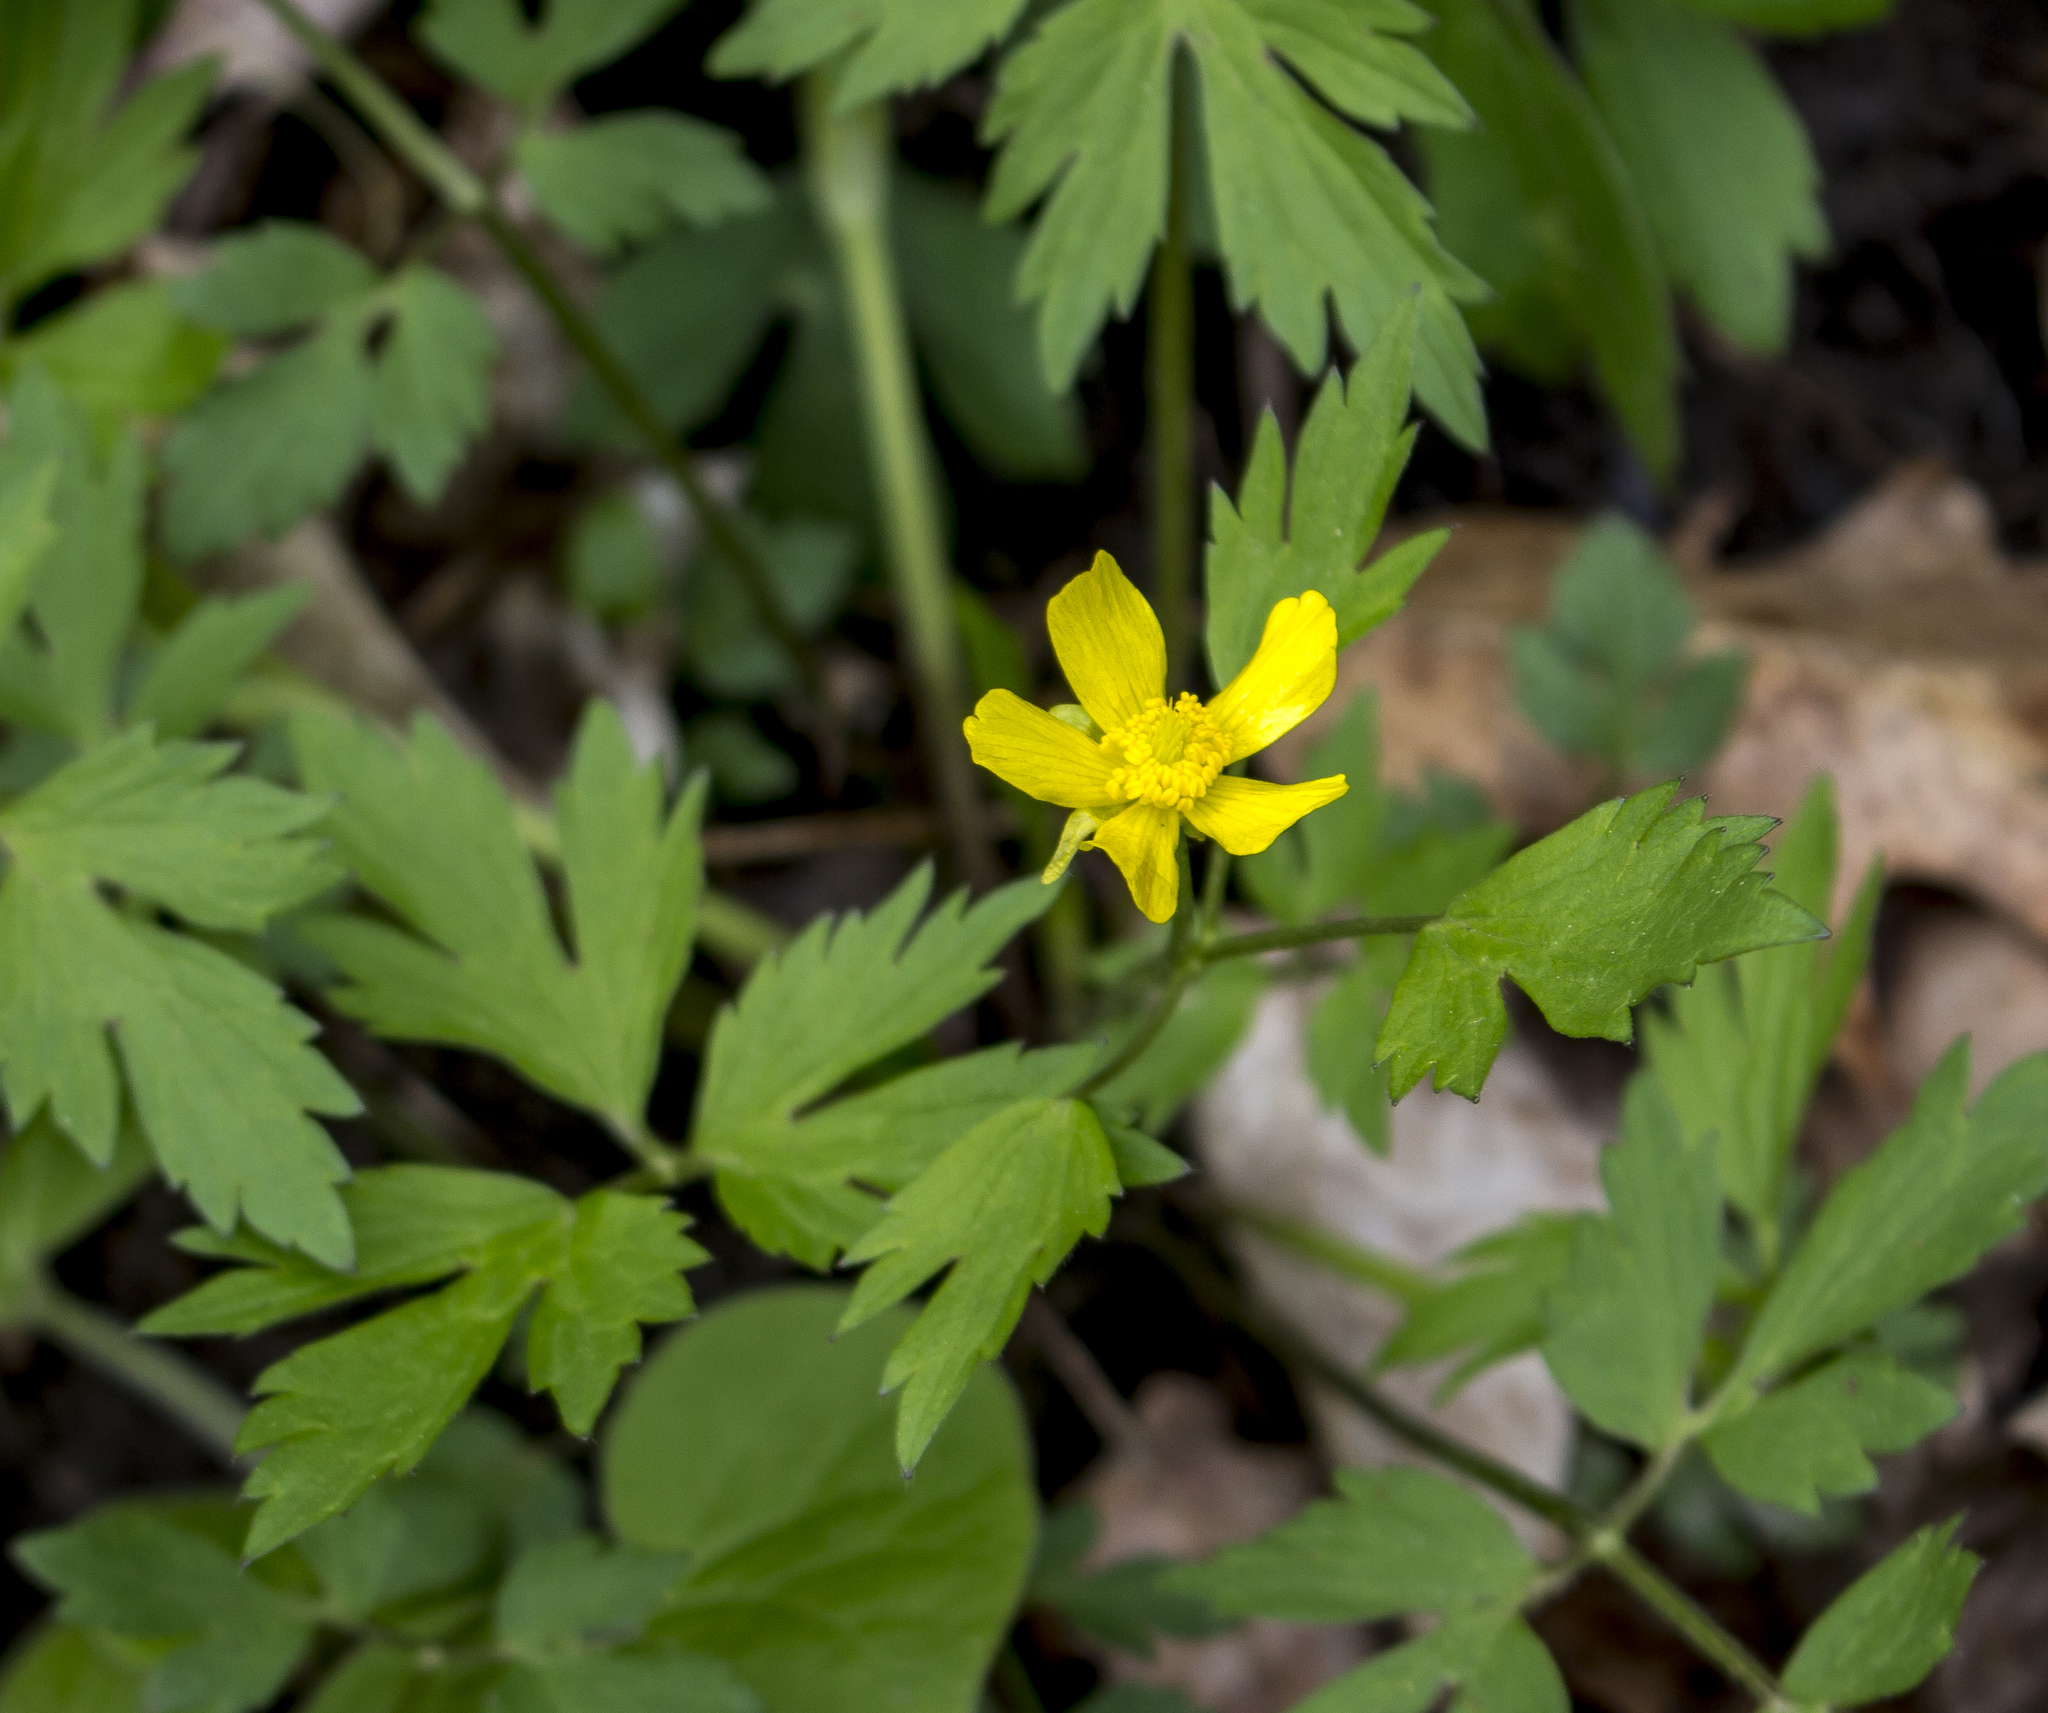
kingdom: Plantae
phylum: Tracheophyta
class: Magnoliopsida
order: Ranunculales
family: Ranunculaceae
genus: Ranunculus
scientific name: Ranunculus hispidus
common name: Bristly buttercup
